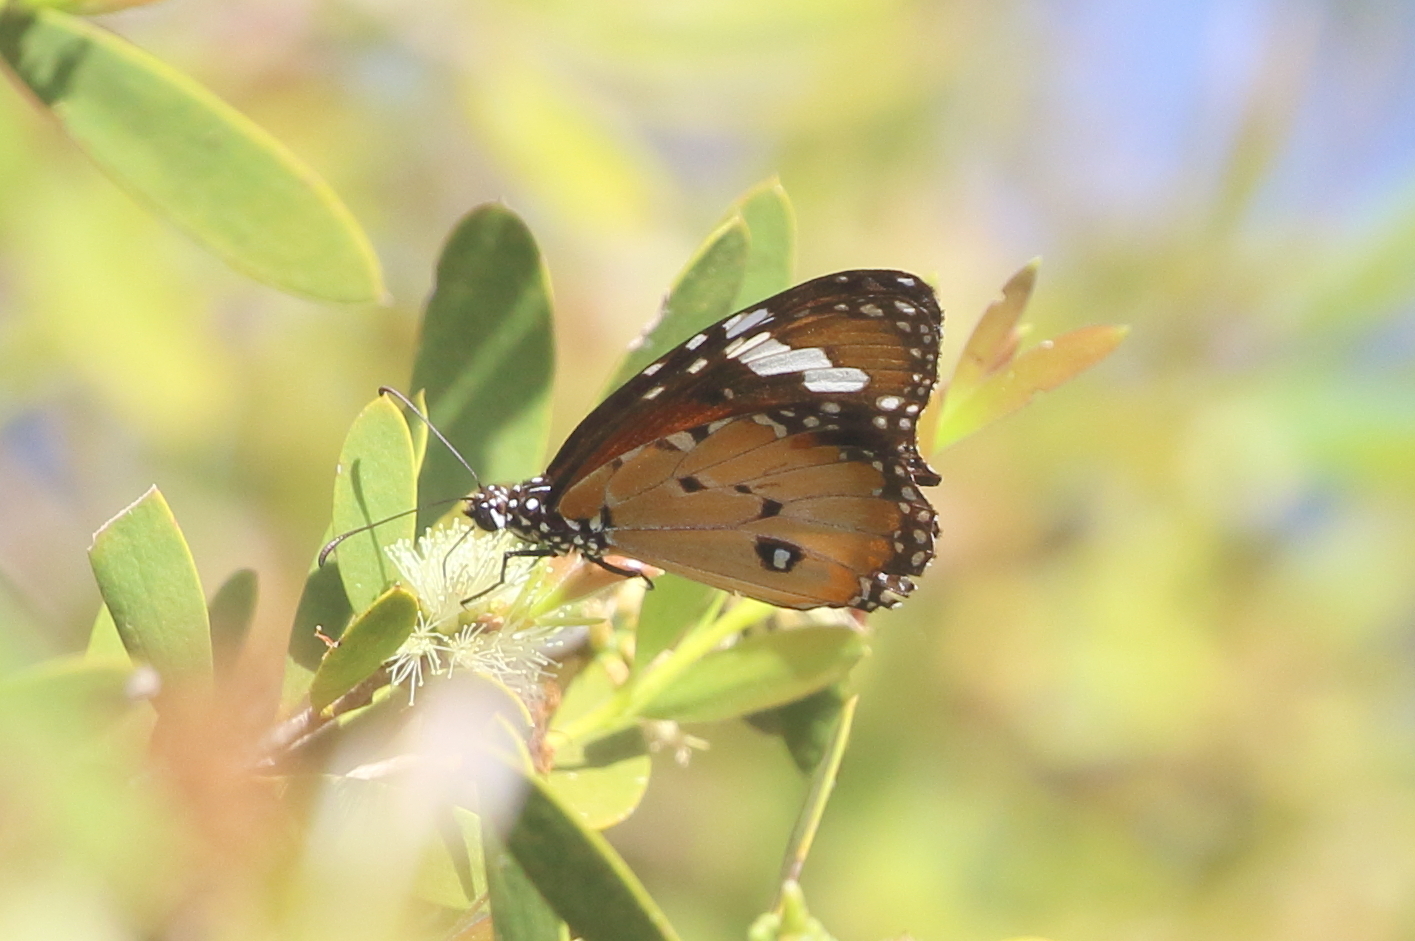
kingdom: Animalia
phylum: Arthropoda
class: Insecta
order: Lepidoptera
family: Nymphalidae
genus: Danaus
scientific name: Danaus chrysippus
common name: Plain tiger
